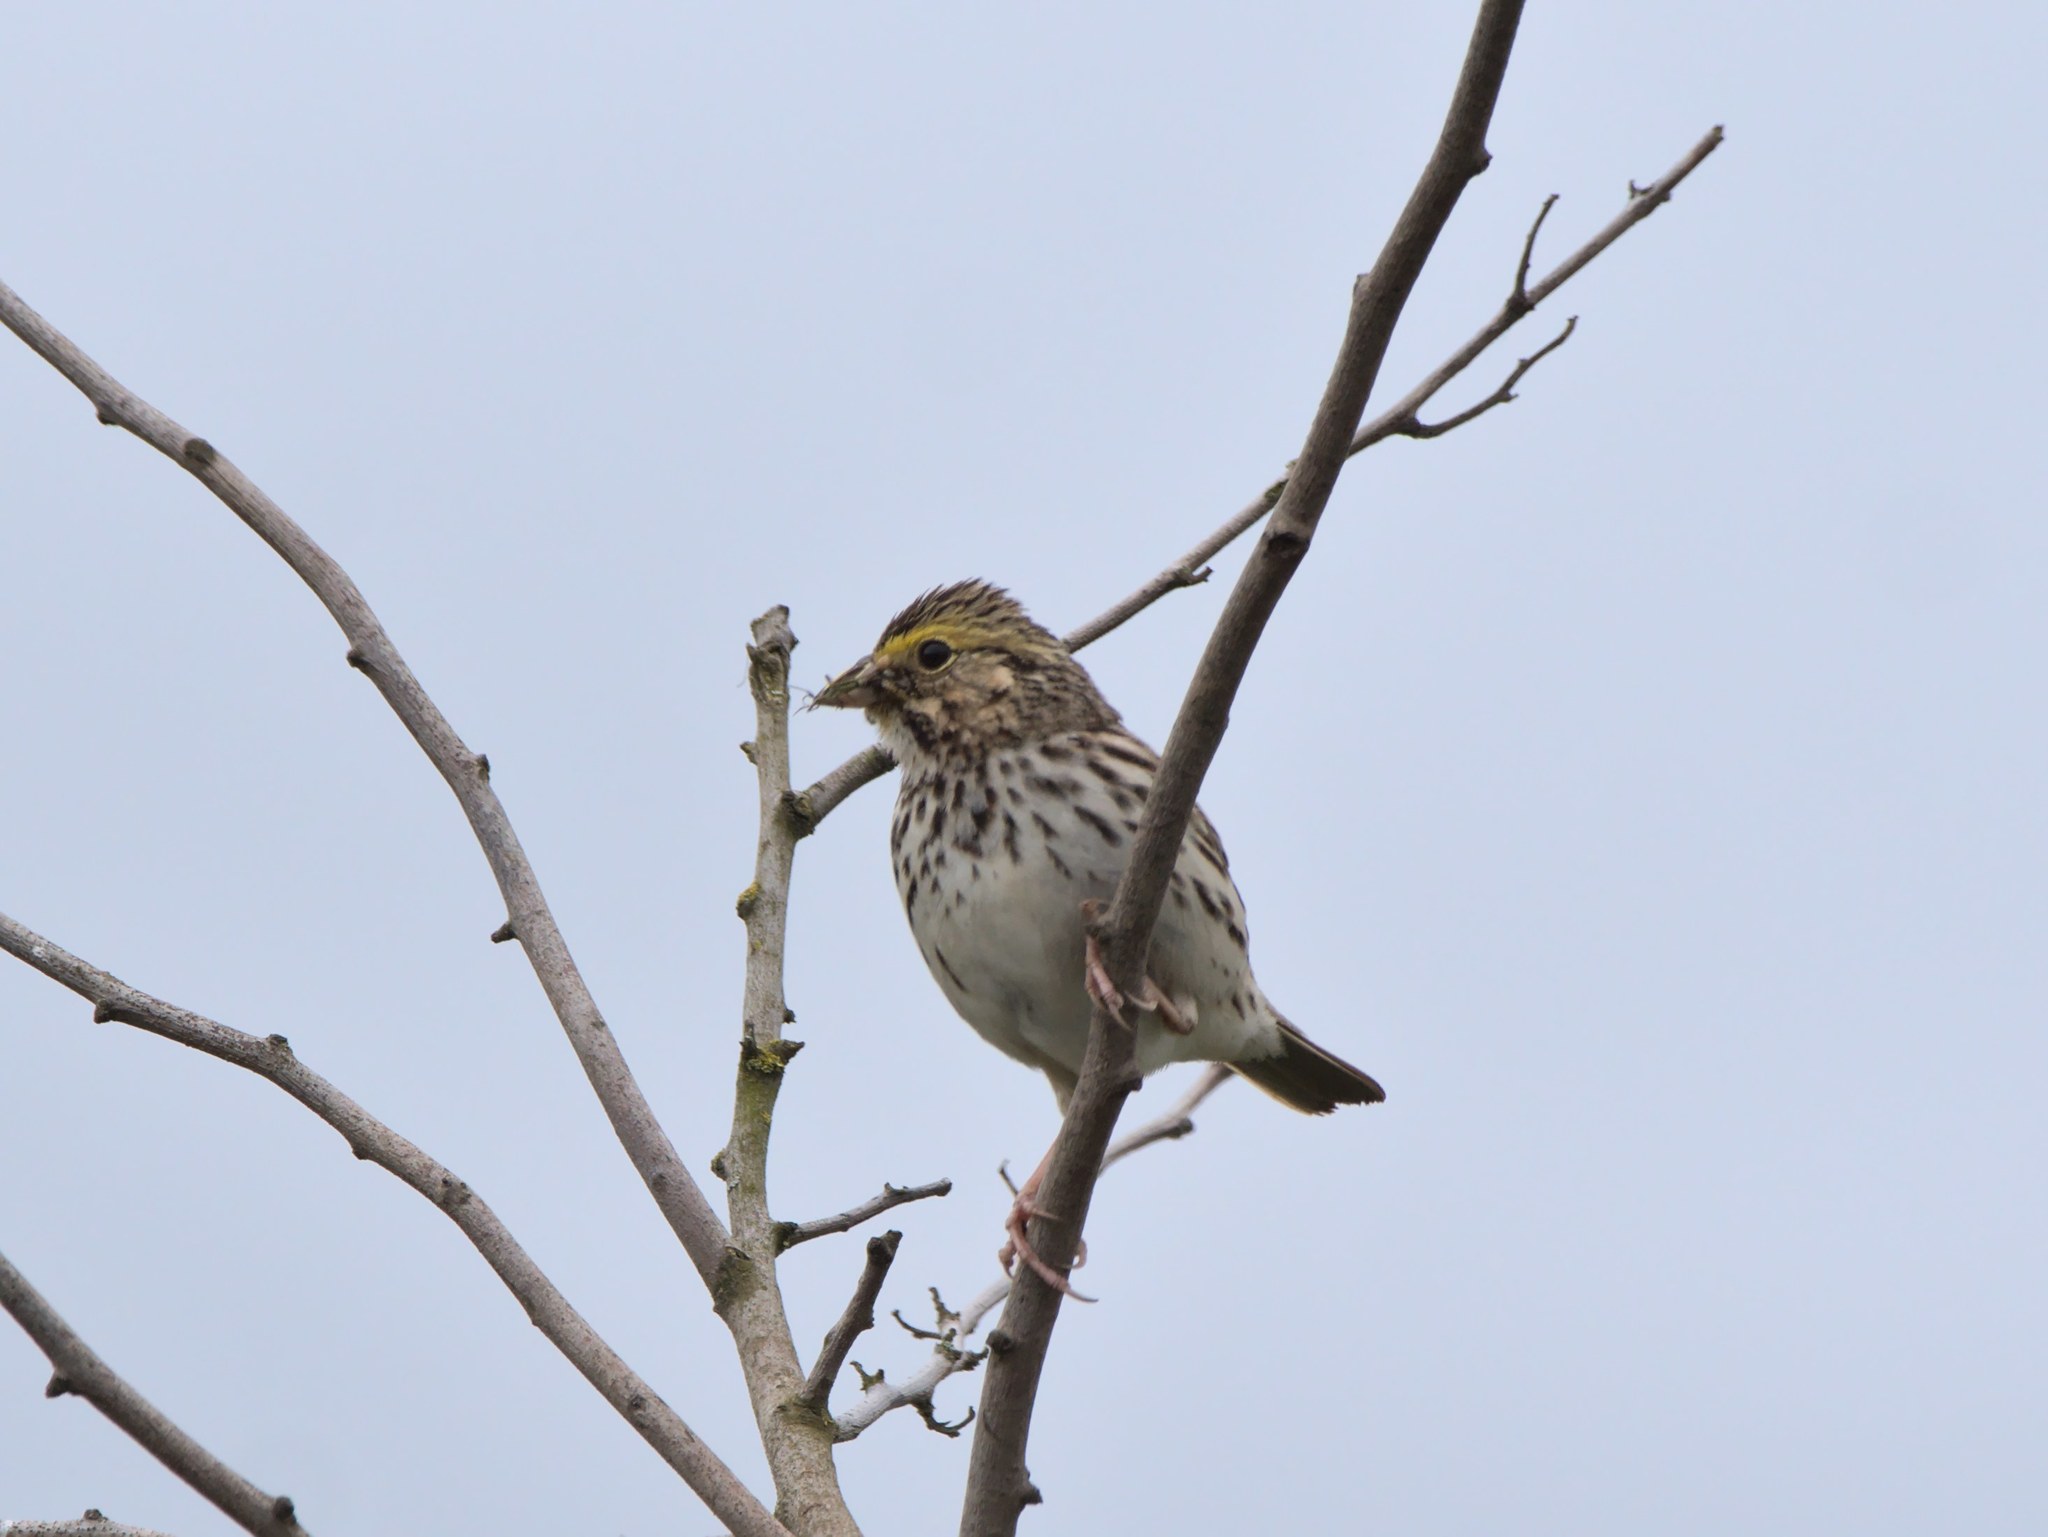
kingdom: Animalia
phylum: Chordata
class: Aves
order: Passeriformes
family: Passerellidae
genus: Passerculus
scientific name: Passerculus sandwichensis
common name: Savannah sparrow
